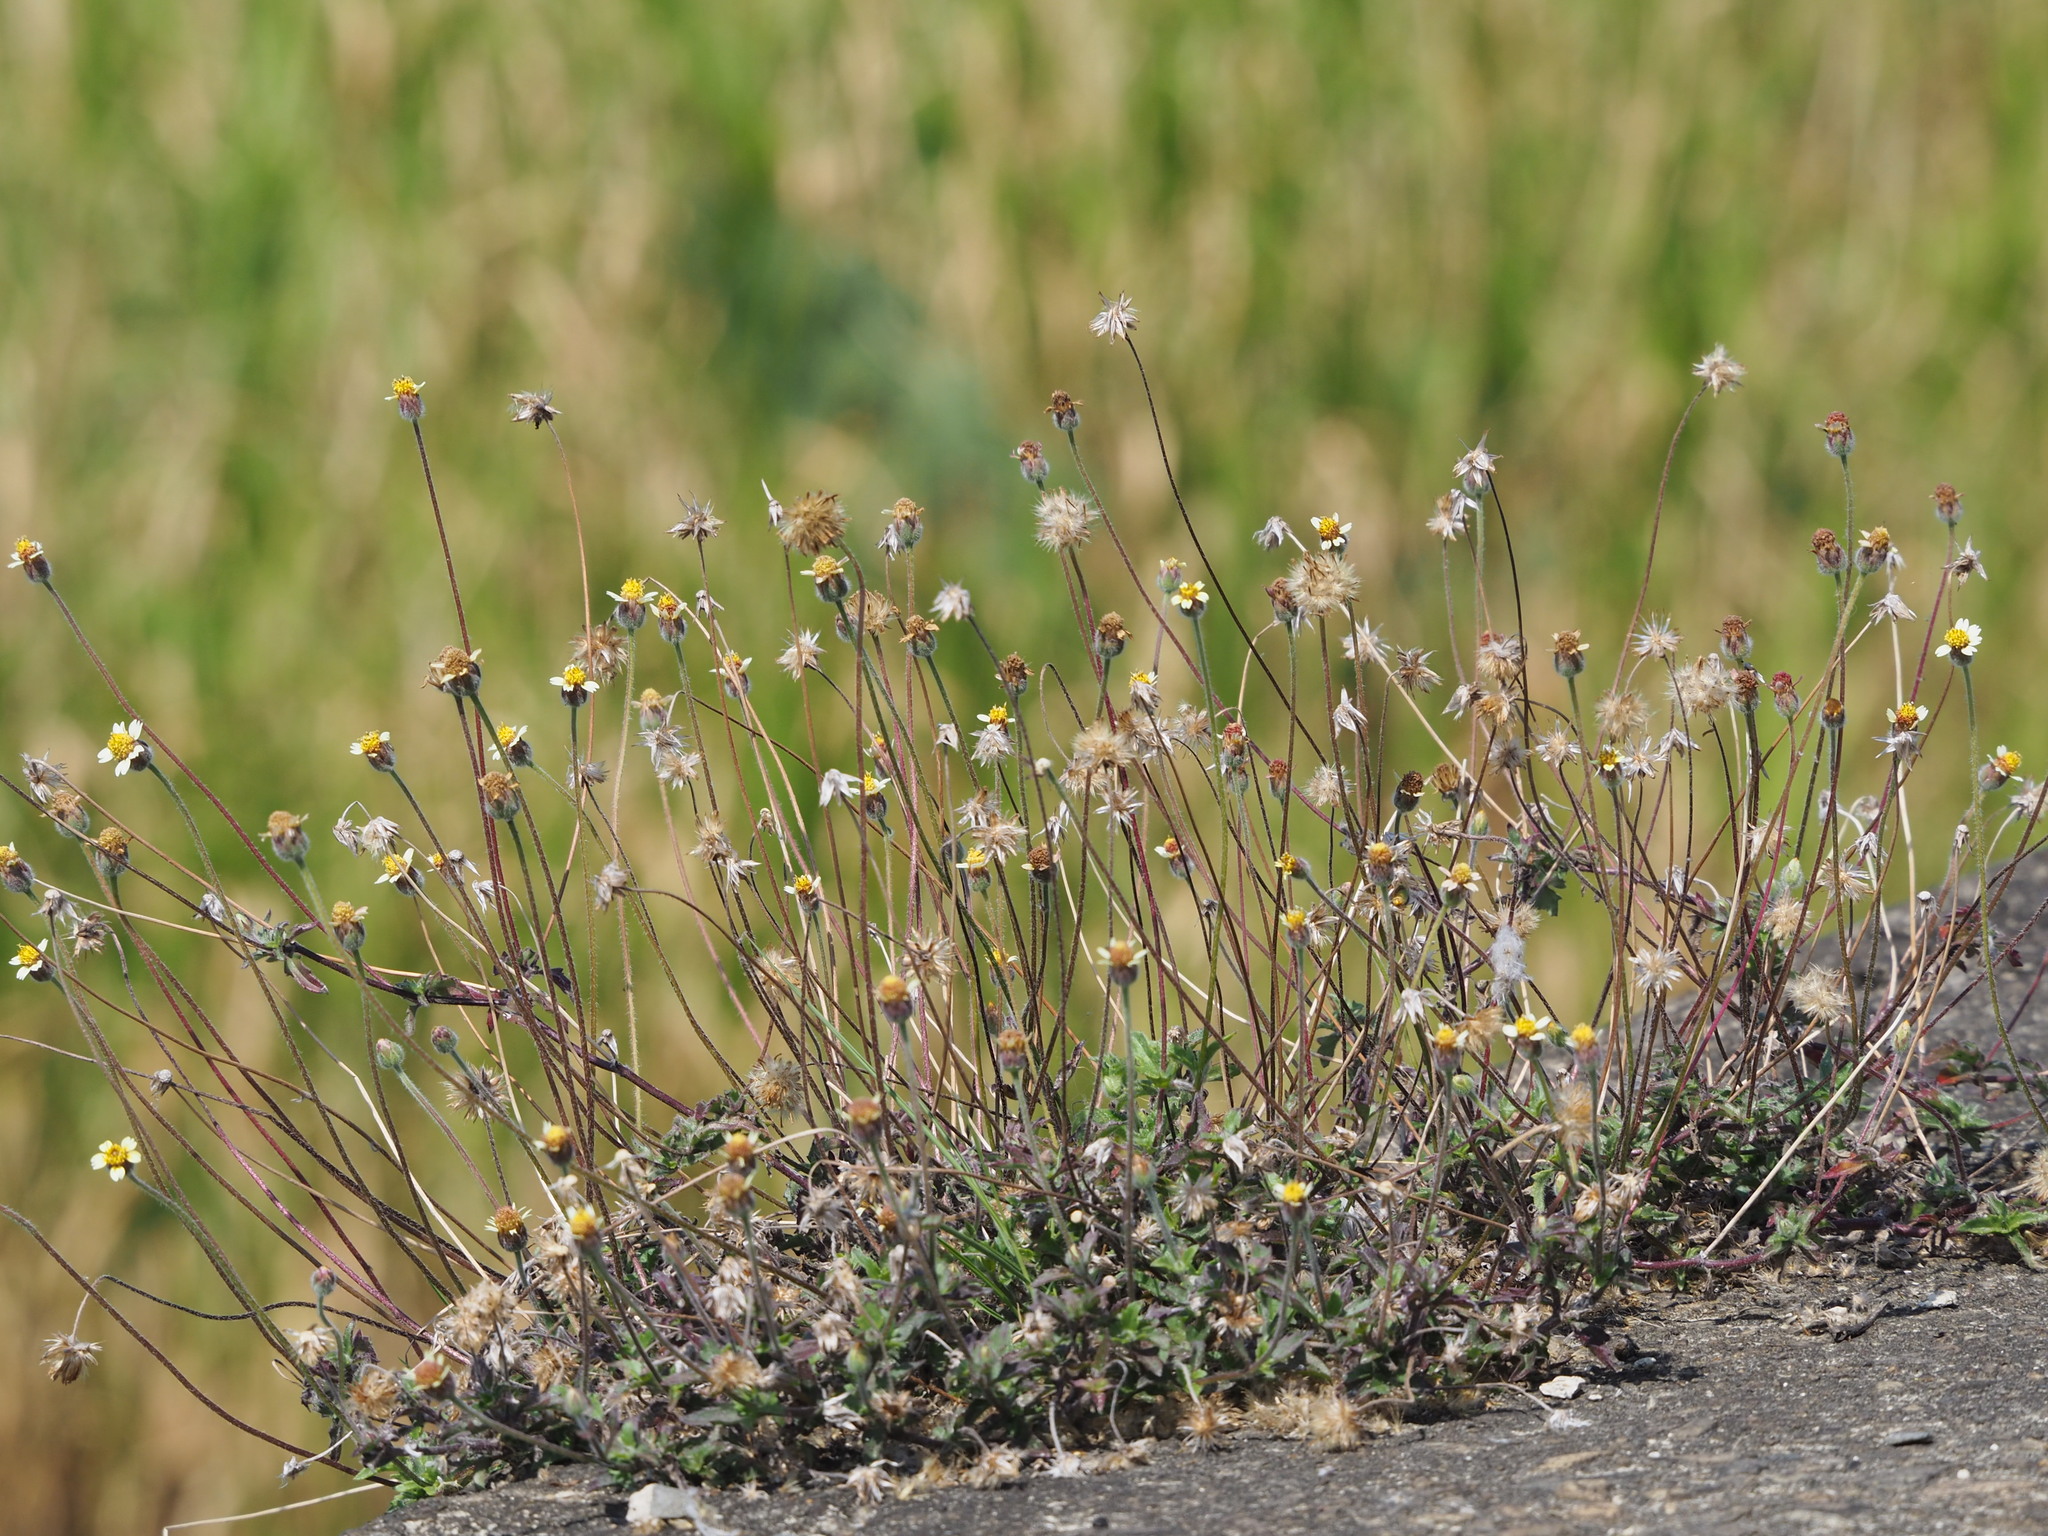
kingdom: Plantae
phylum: Tracheophyta
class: Magnoliopsida
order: Asterales
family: Asteraceae
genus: Tridax
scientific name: Tridax procumbens
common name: Coatbuttons
